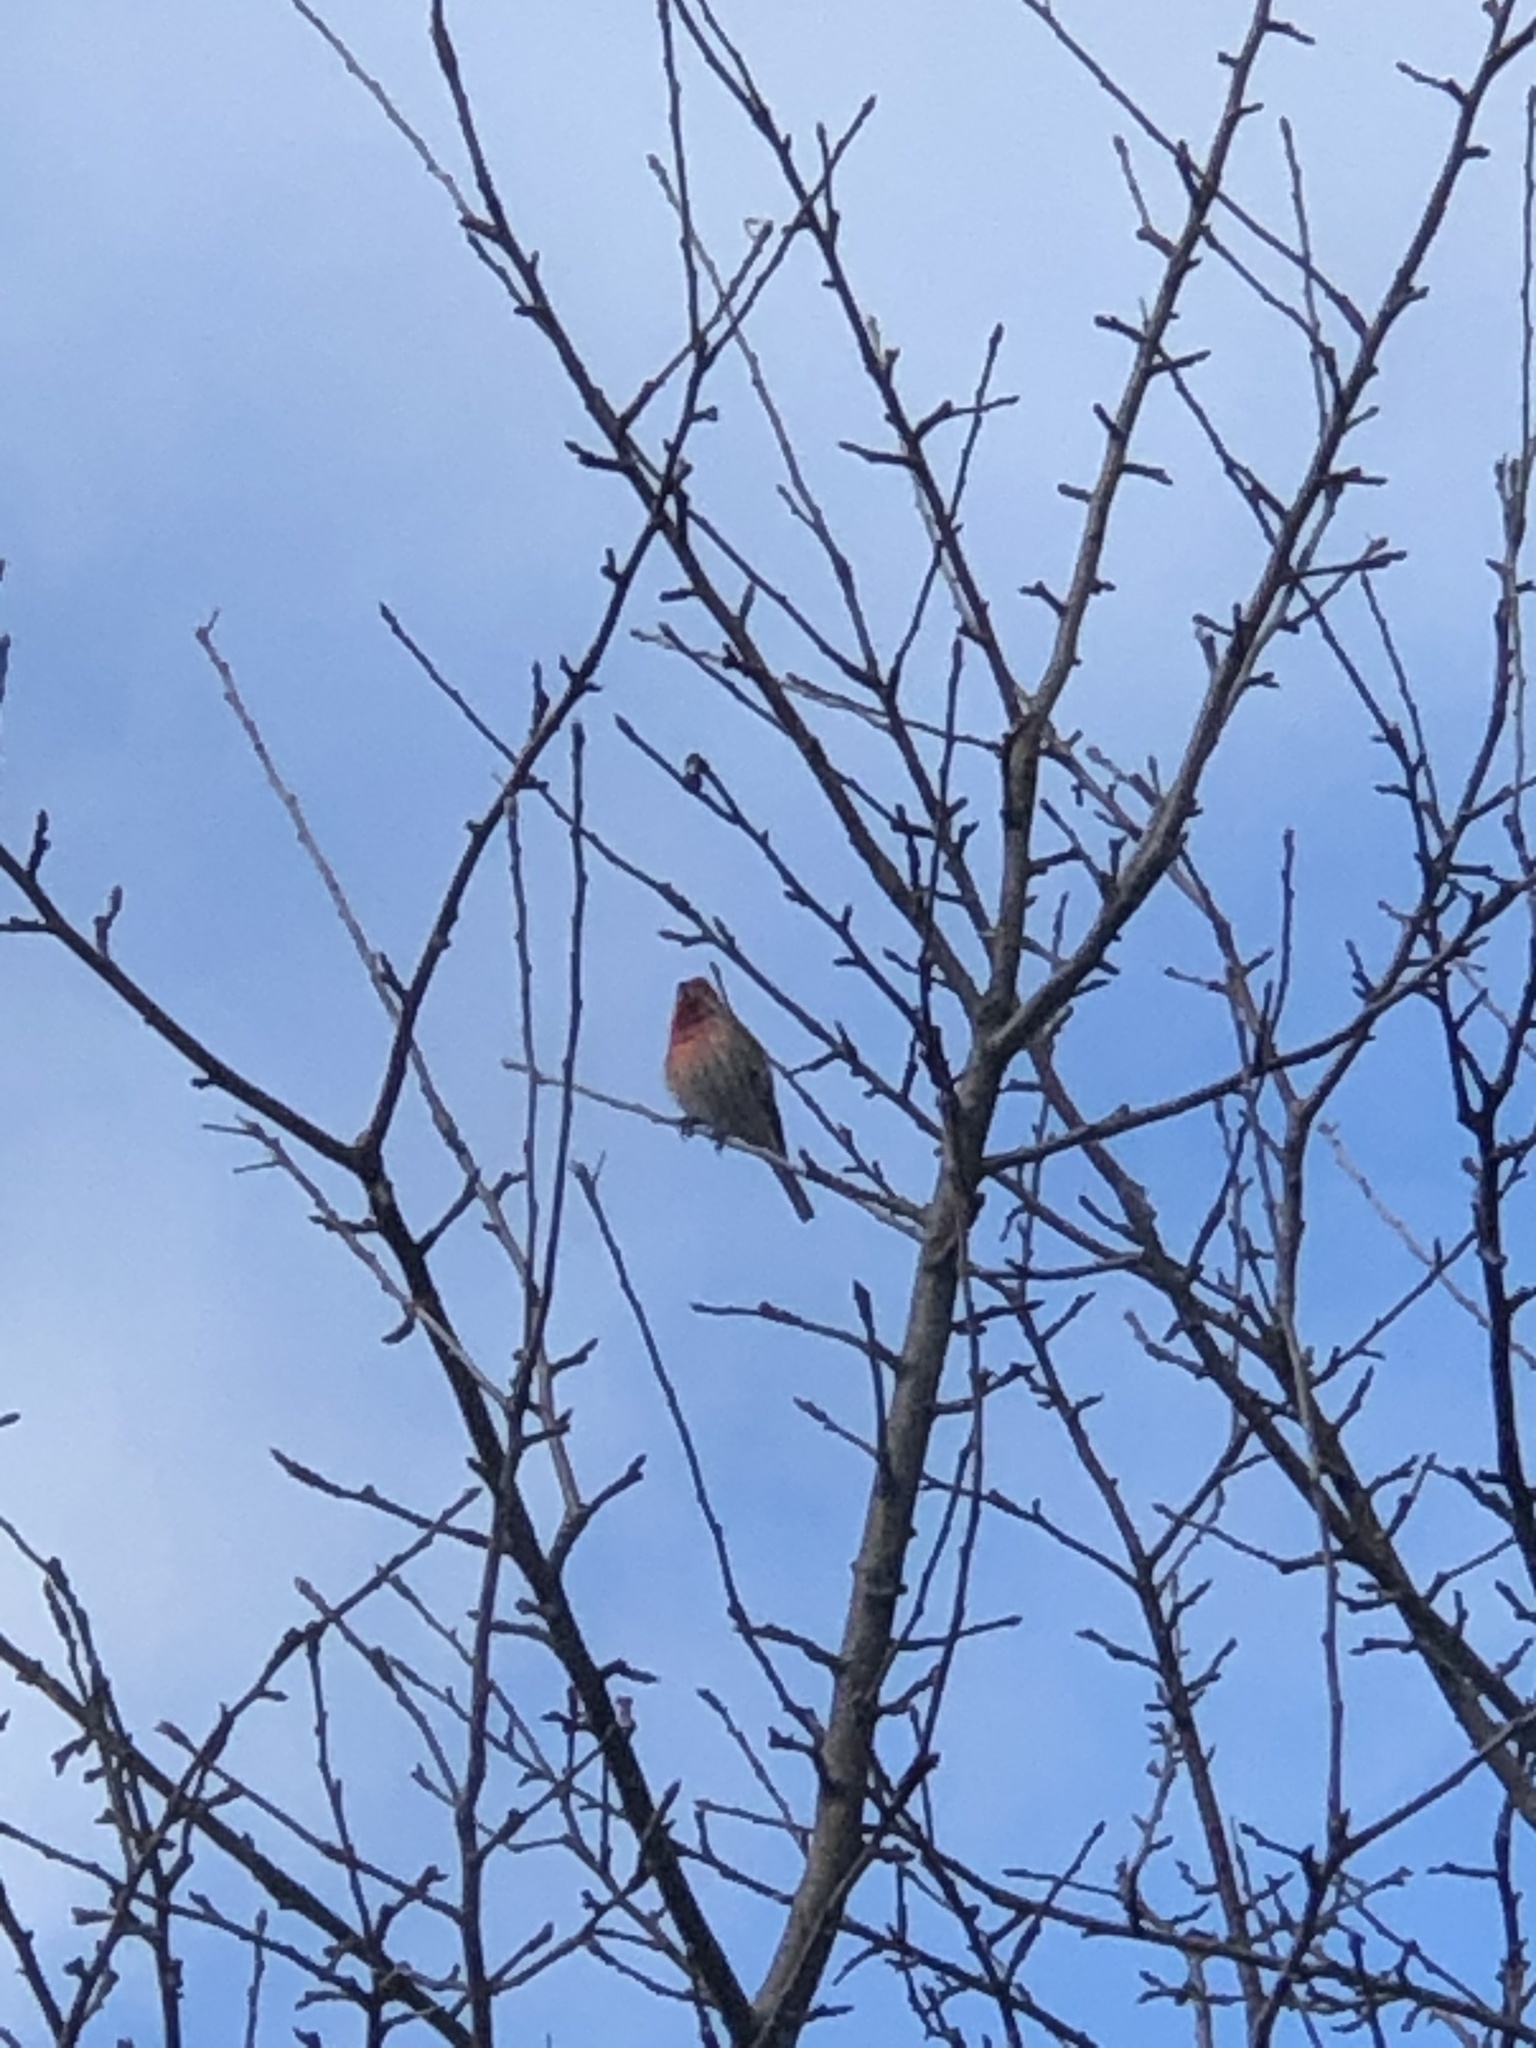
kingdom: Animalia
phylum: Chordata
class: Aves
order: Passeriformes
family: Fringillidae
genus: Haemorhous
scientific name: Haemorhous mexicanus
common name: House finch
